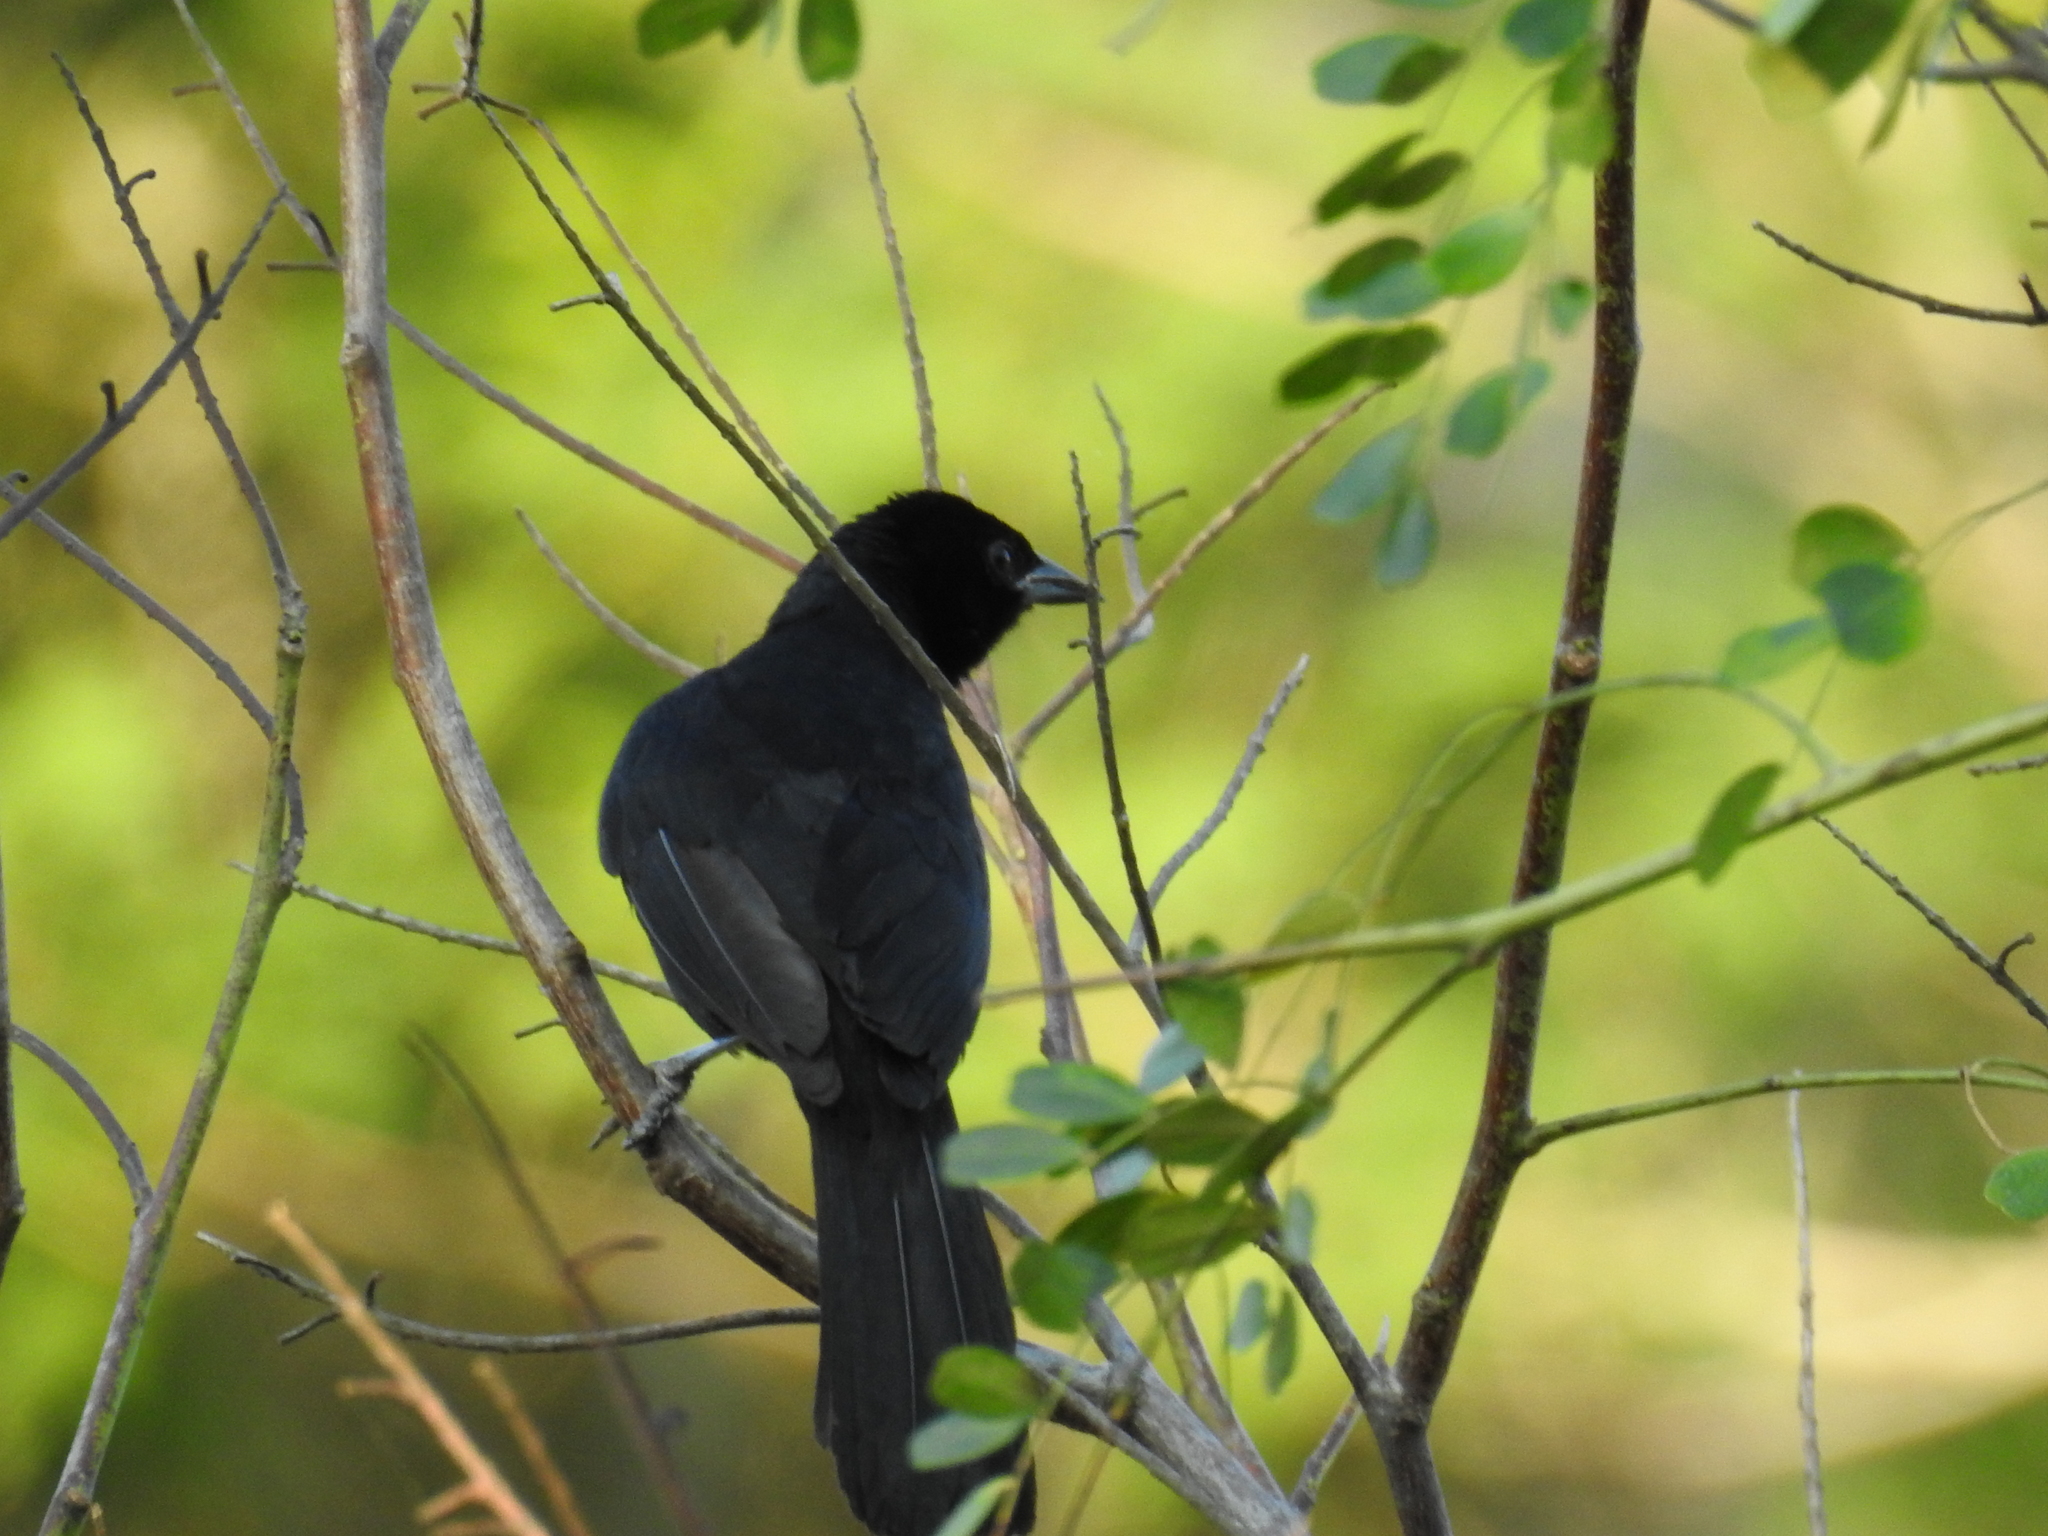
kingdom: Animalia
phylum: Chordata
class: Aves
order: Passeriformes
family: Icteridae
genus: Dives
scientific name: Dives dives
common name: Melodious blackbird
